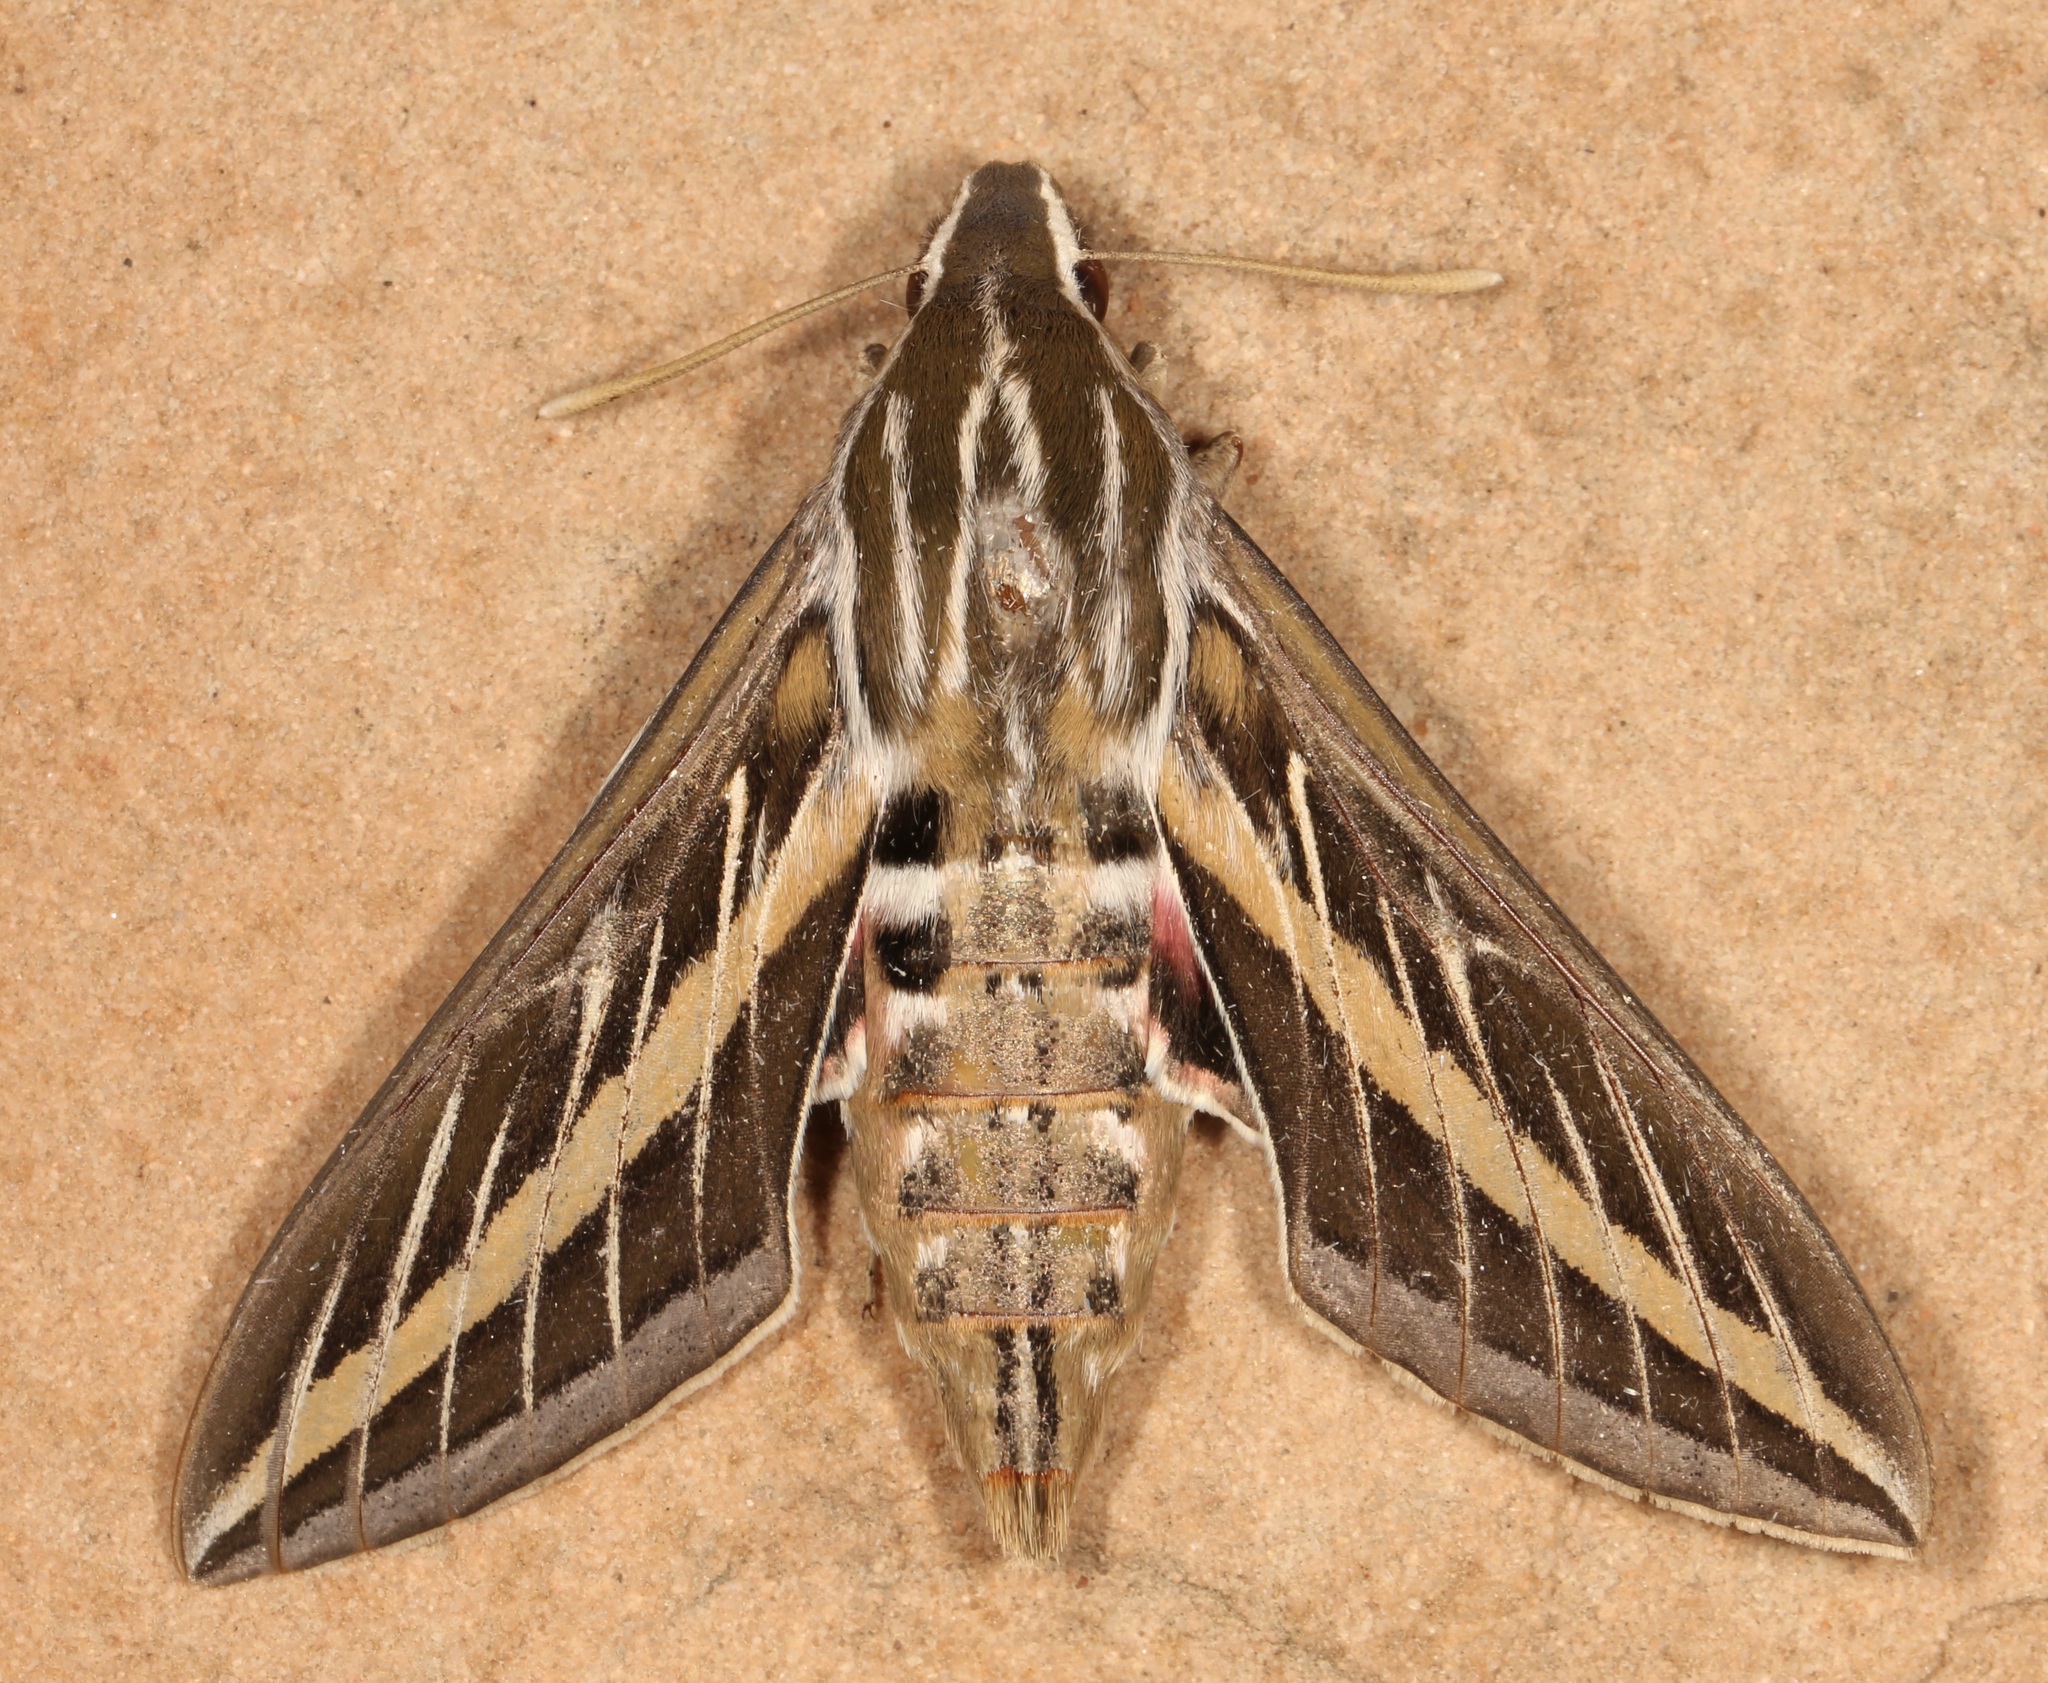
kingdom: Animalia
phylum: Arthropoda
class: Insecta
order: Lepidoptera
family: Sphingidae
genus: Hyles
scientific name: Hyles lineata
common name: White-lined sphinx
